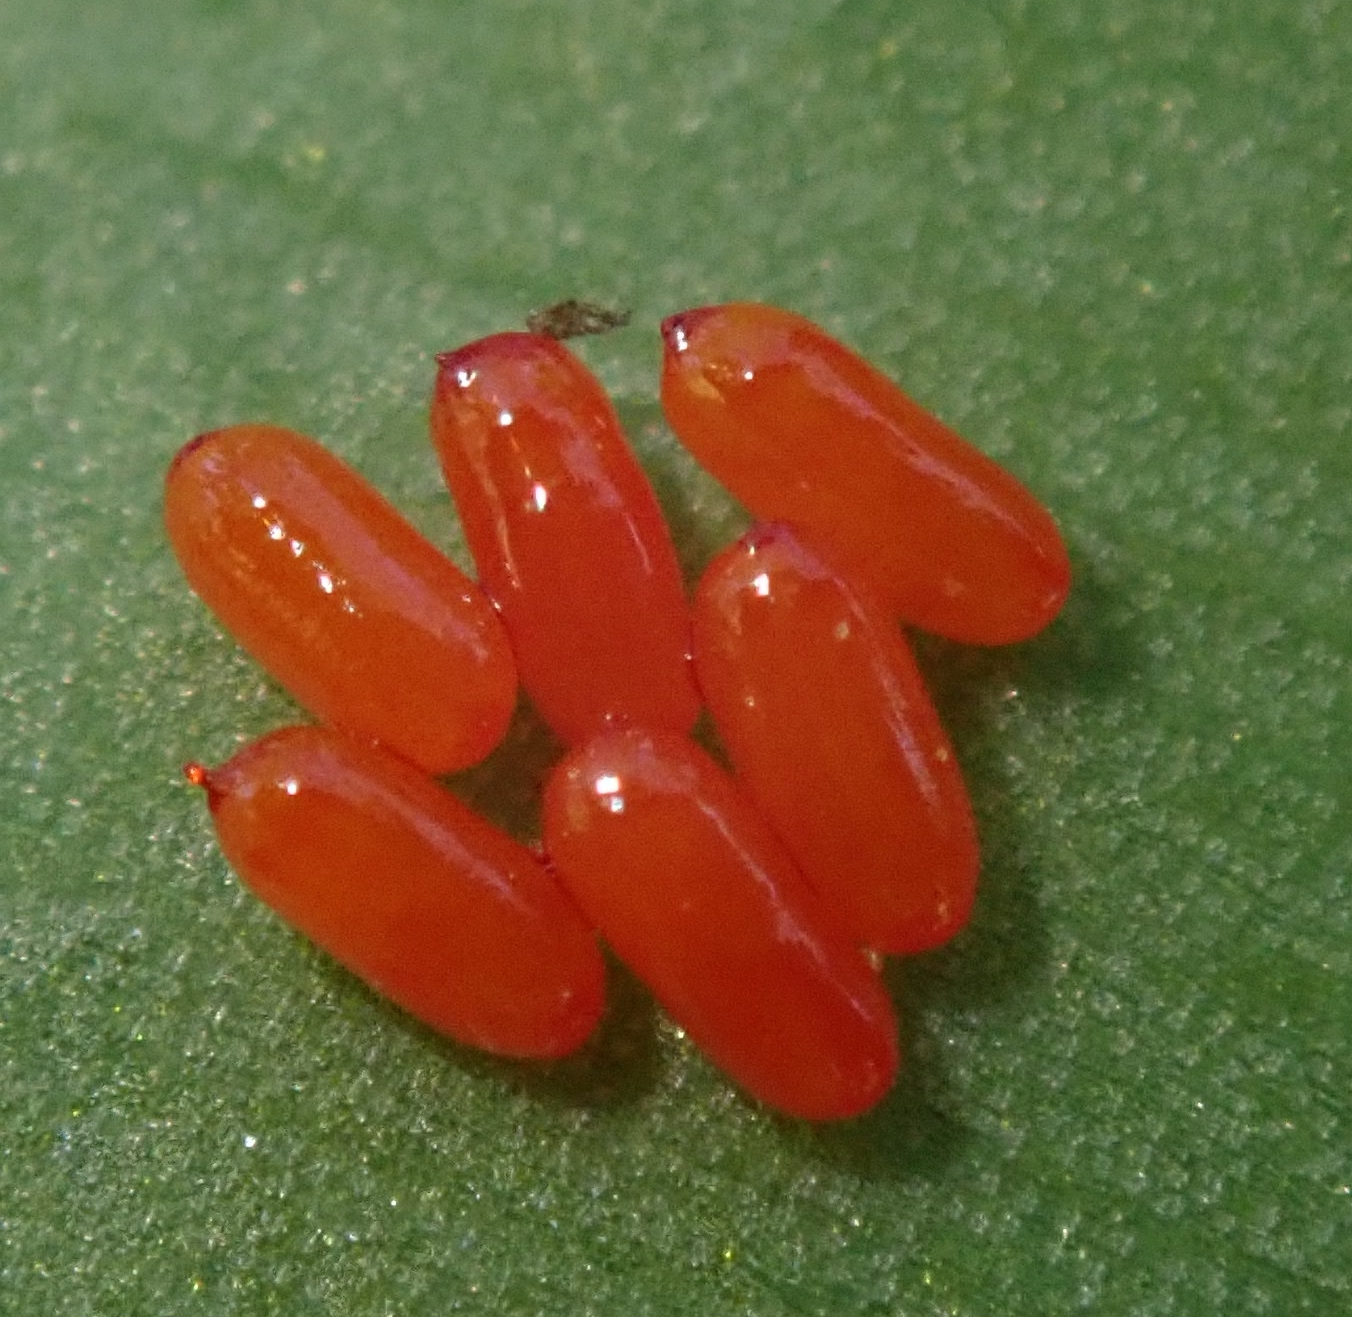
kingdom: Animalia
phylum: Arthropoda
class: Insecta
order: Coleoptera
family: Chrysomelidae
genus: Lilioceris
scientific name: Lilioceris merdigera
